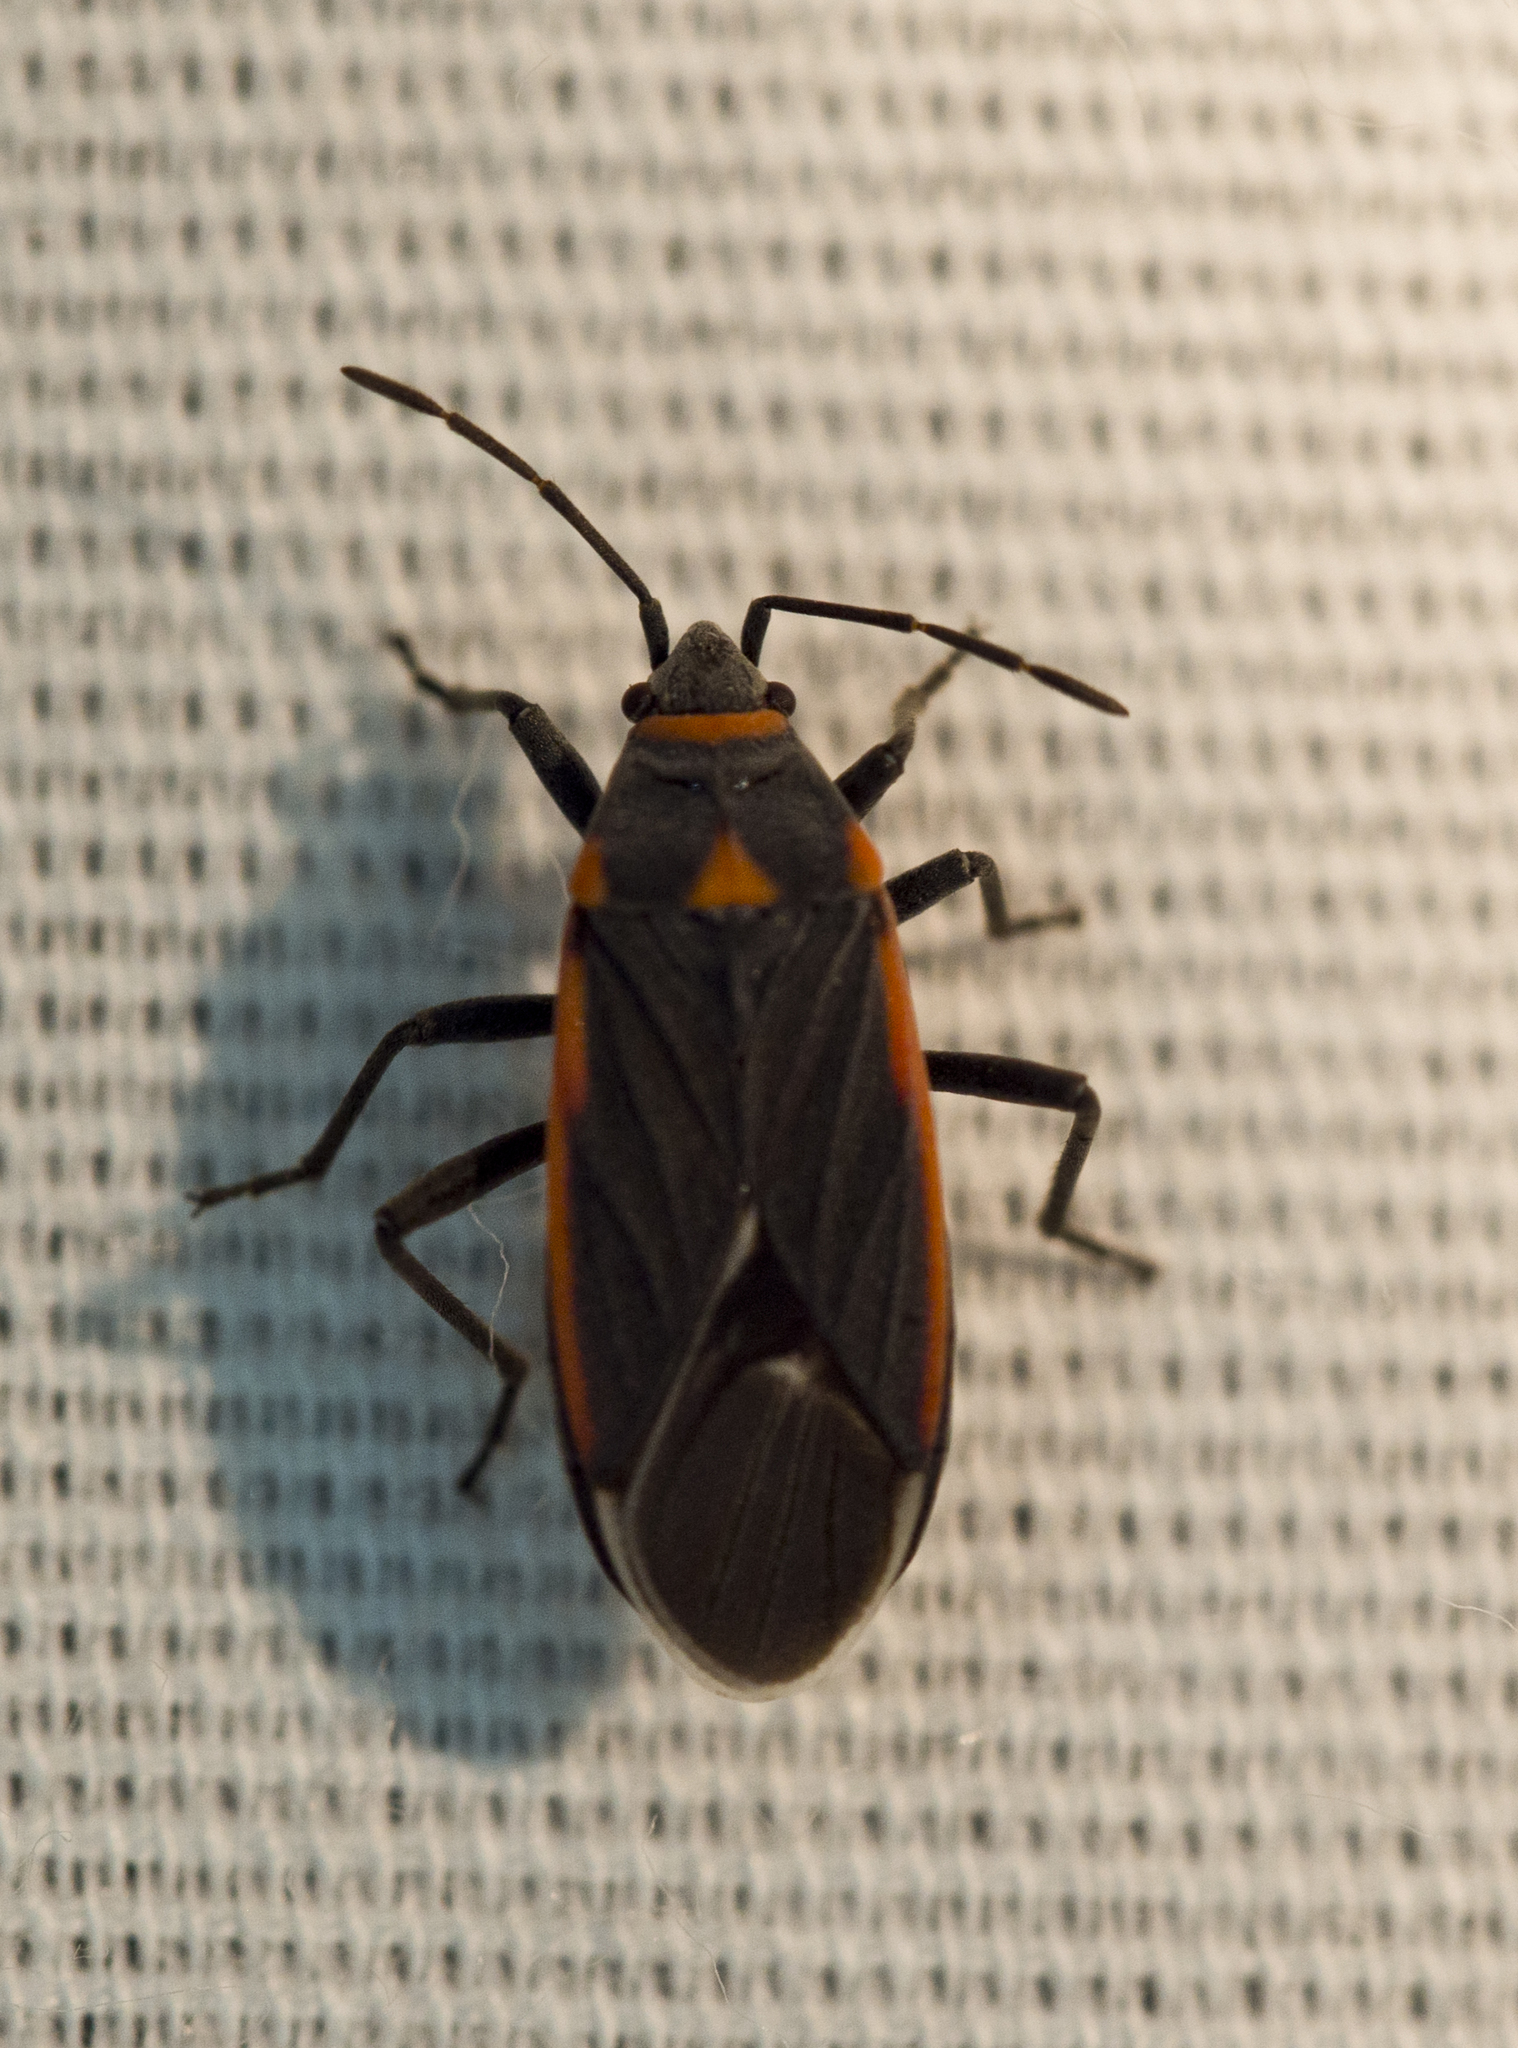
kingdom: Animalia
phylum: Arthropoda
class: Insecta
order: Hemiptera
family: Lygaeidae
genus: Melacoryphus
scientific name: Melacoryphus lateralis
